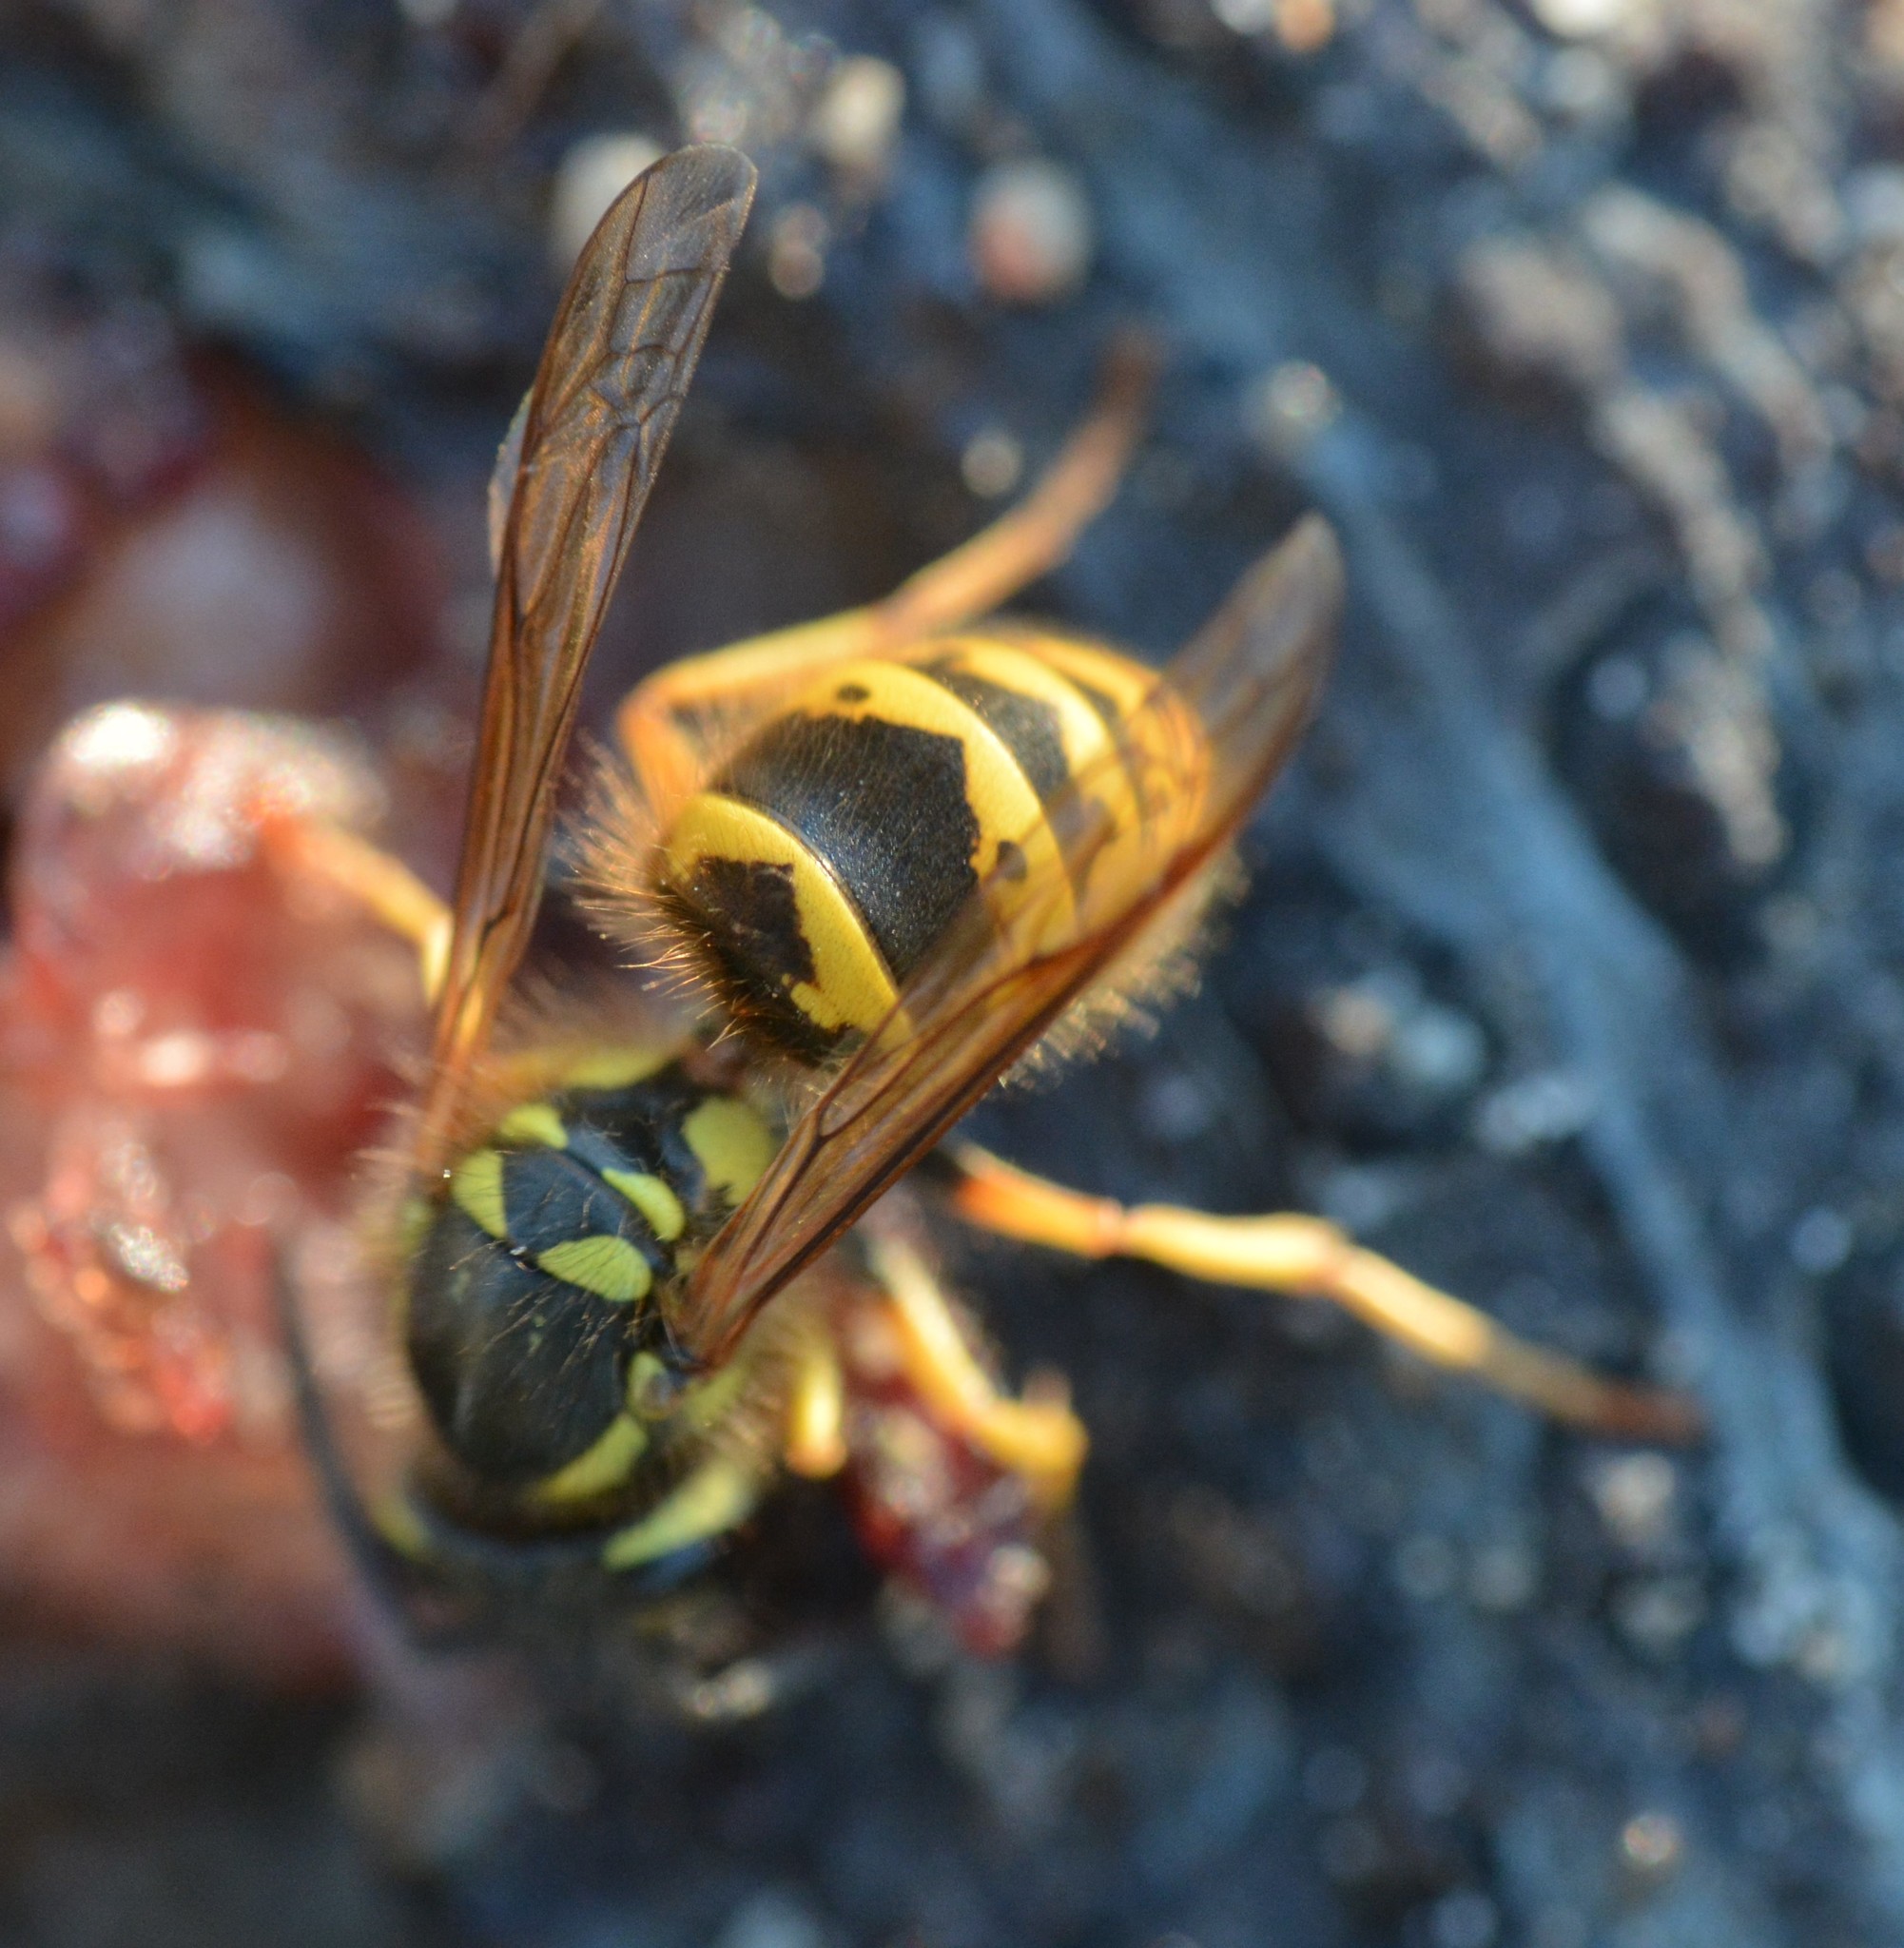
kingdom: Animalia
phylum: Arthropoda
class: Insecta
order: Hymenoptera
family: Vespidae
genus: Vespula
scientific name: Vespula flavopilosa
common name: Downy yellowjacket
